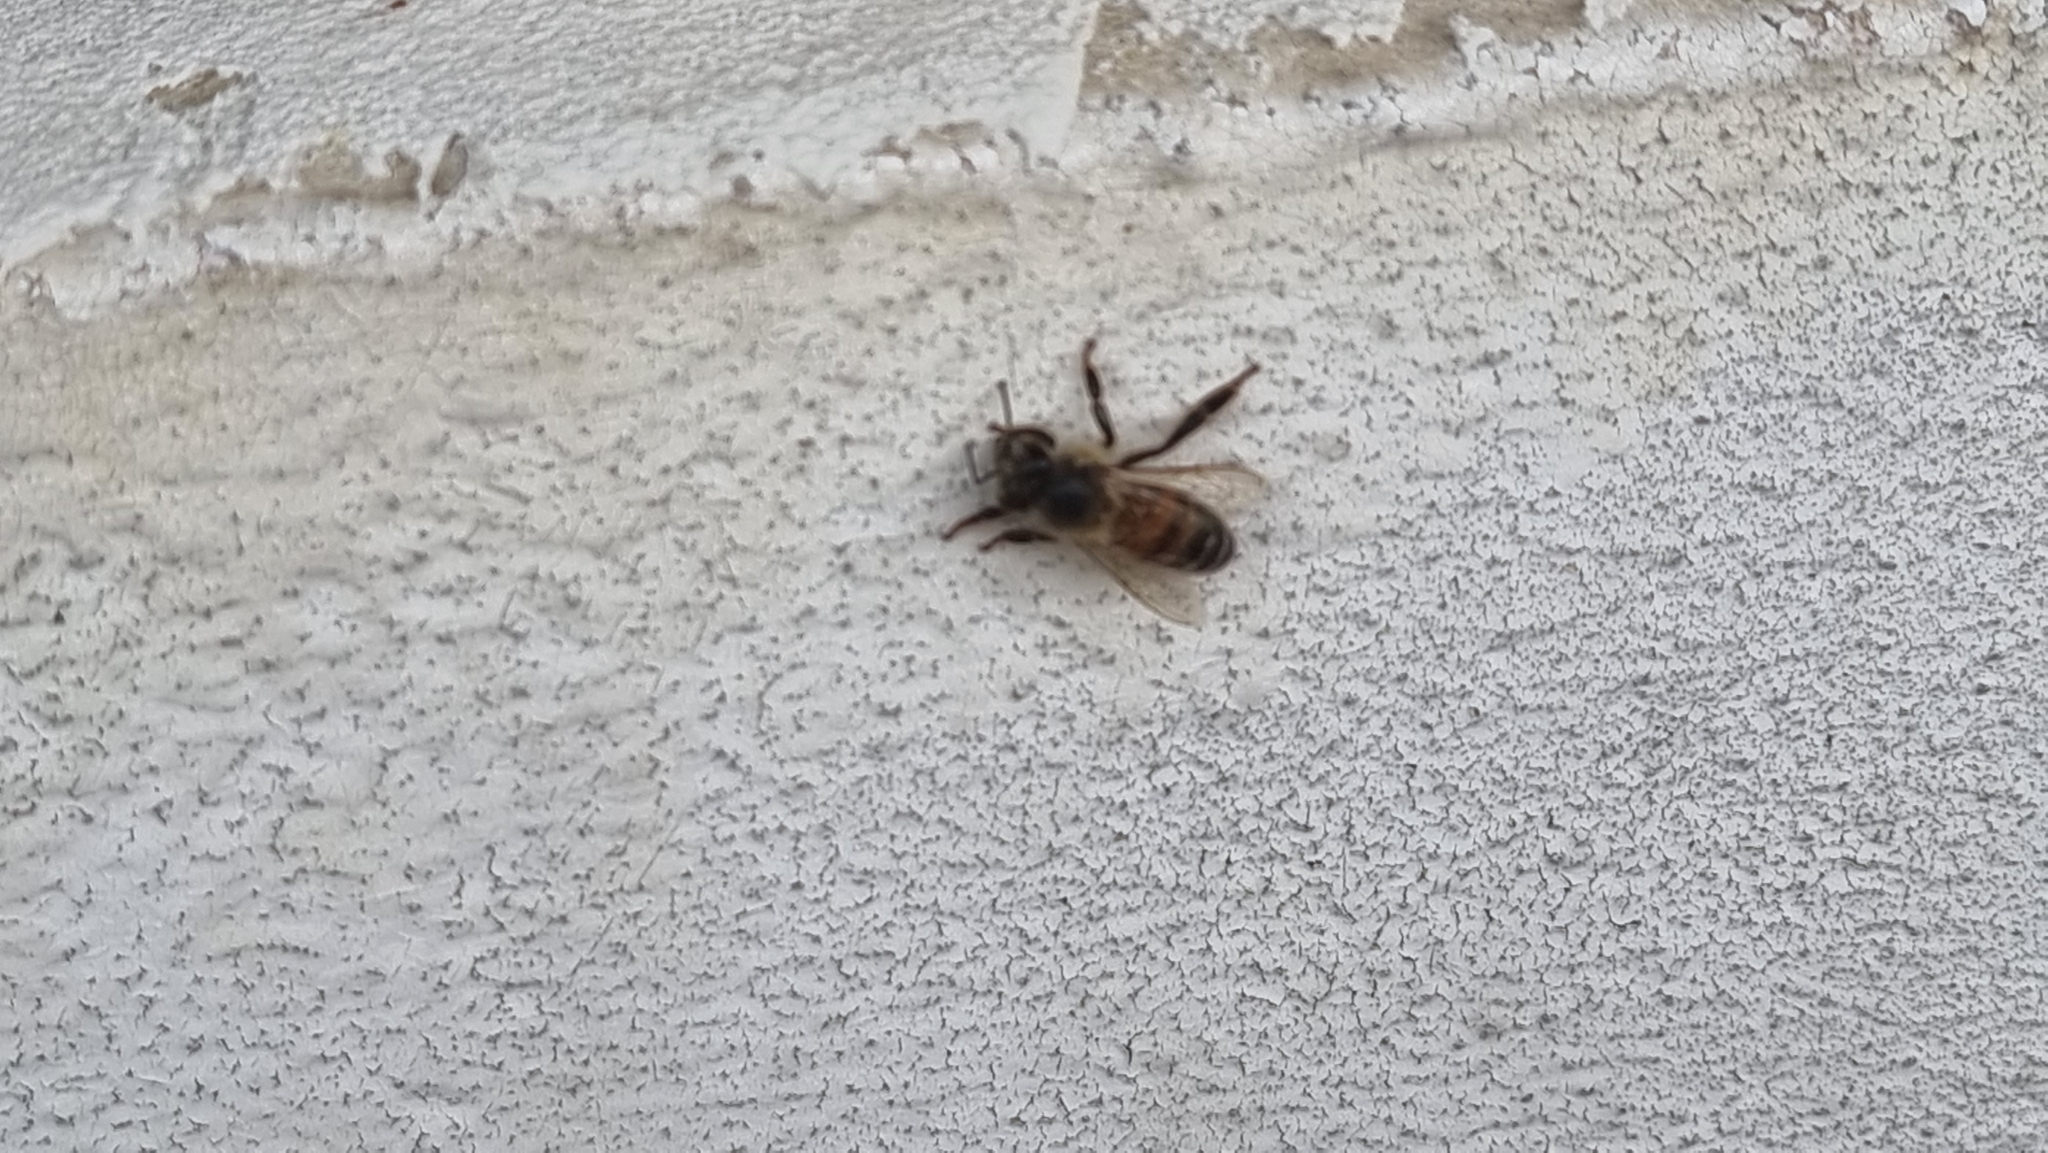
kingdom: Animalia
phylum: Arthropoda
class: Insecta
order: Hymenoptera
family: Apidae
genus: Apis
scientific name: Apis mellifera
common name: Honey bee
